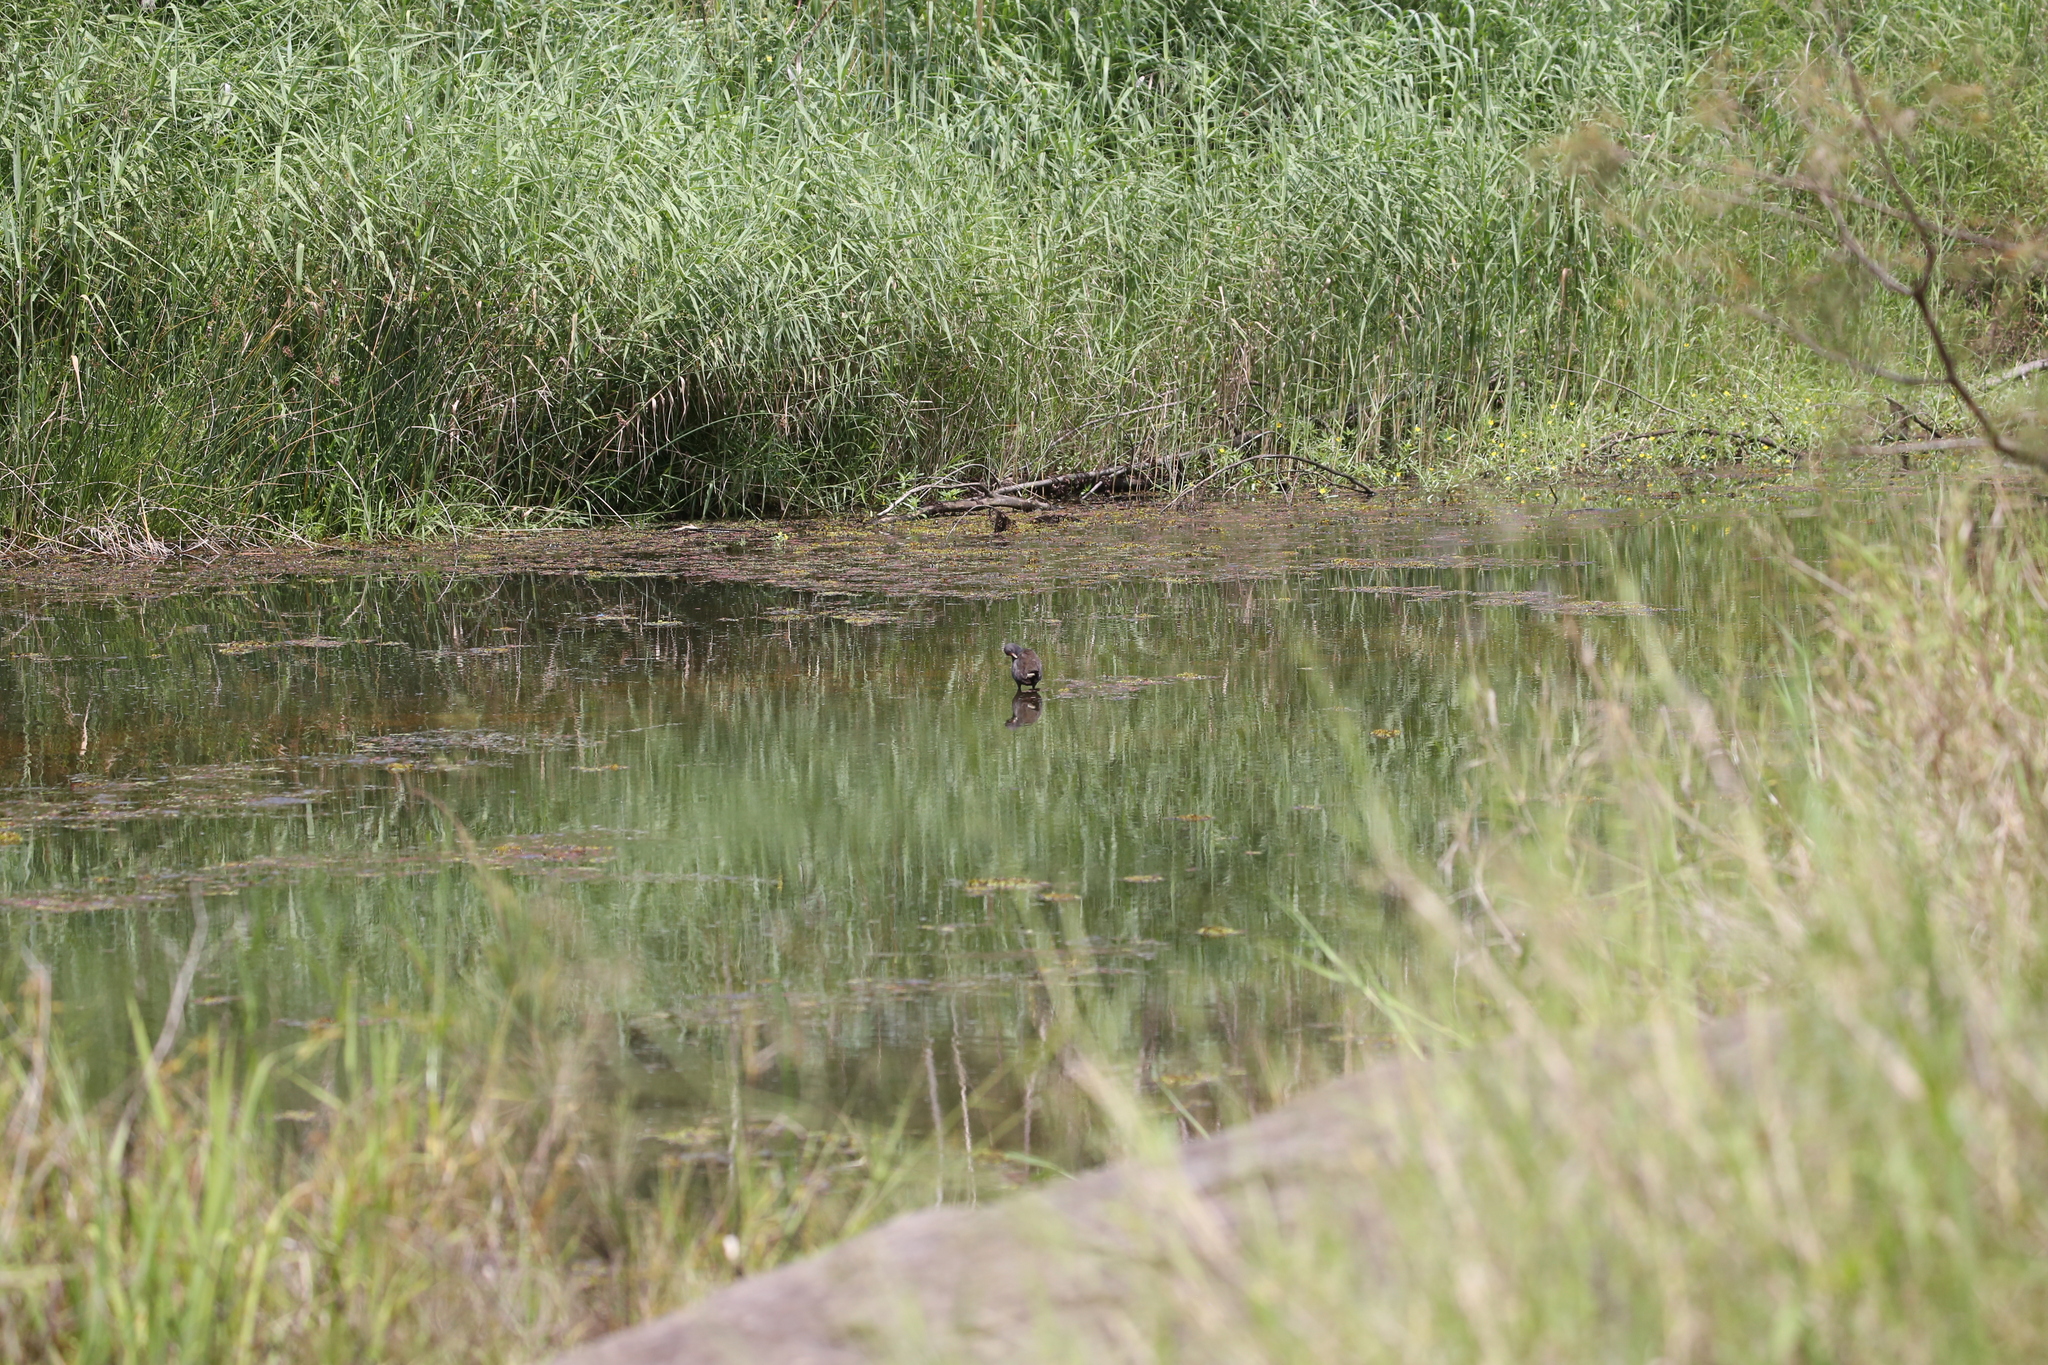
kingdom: Animalia
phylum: Chordata
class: Aves
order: Gruiformes
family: Rallidae
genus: Gallinula
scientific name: Gallinula tenebrosa
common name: Dusky moorhen
